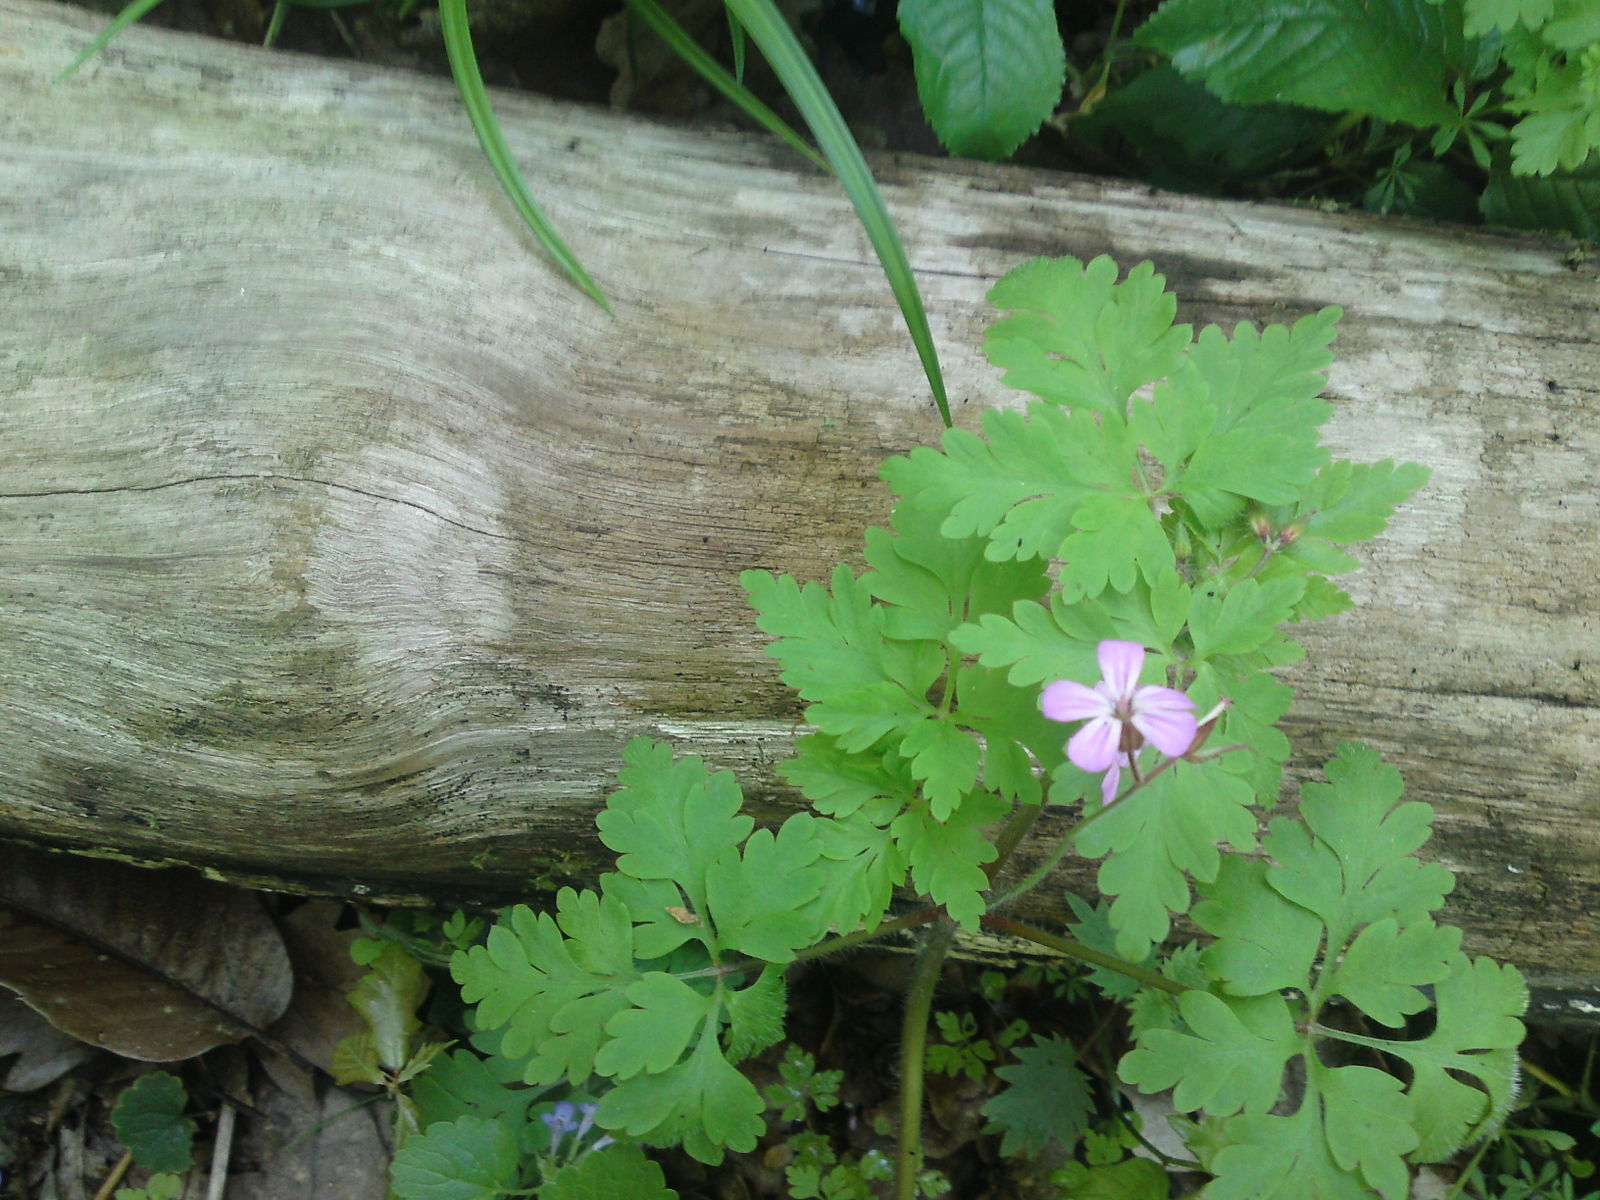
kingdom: Plantae
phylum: Tracheophyta
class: Magnoliopsida
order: Geraniales
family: Geraniaceae
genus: Geranium
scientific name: Geranium robertianum
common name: Herb-robert
